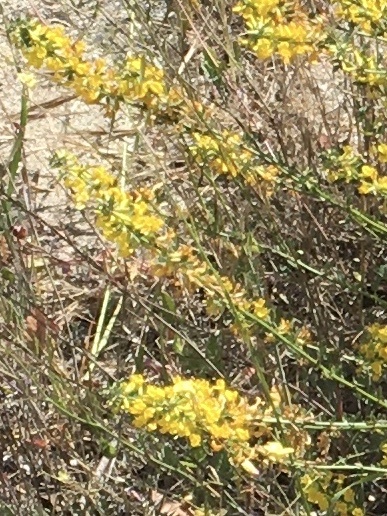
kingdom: Plantae
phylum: Tracheophyta
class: Magnoliopsida
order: Fabales
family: Fabaceae
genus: Acmispon
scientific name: Acmispon glaber
